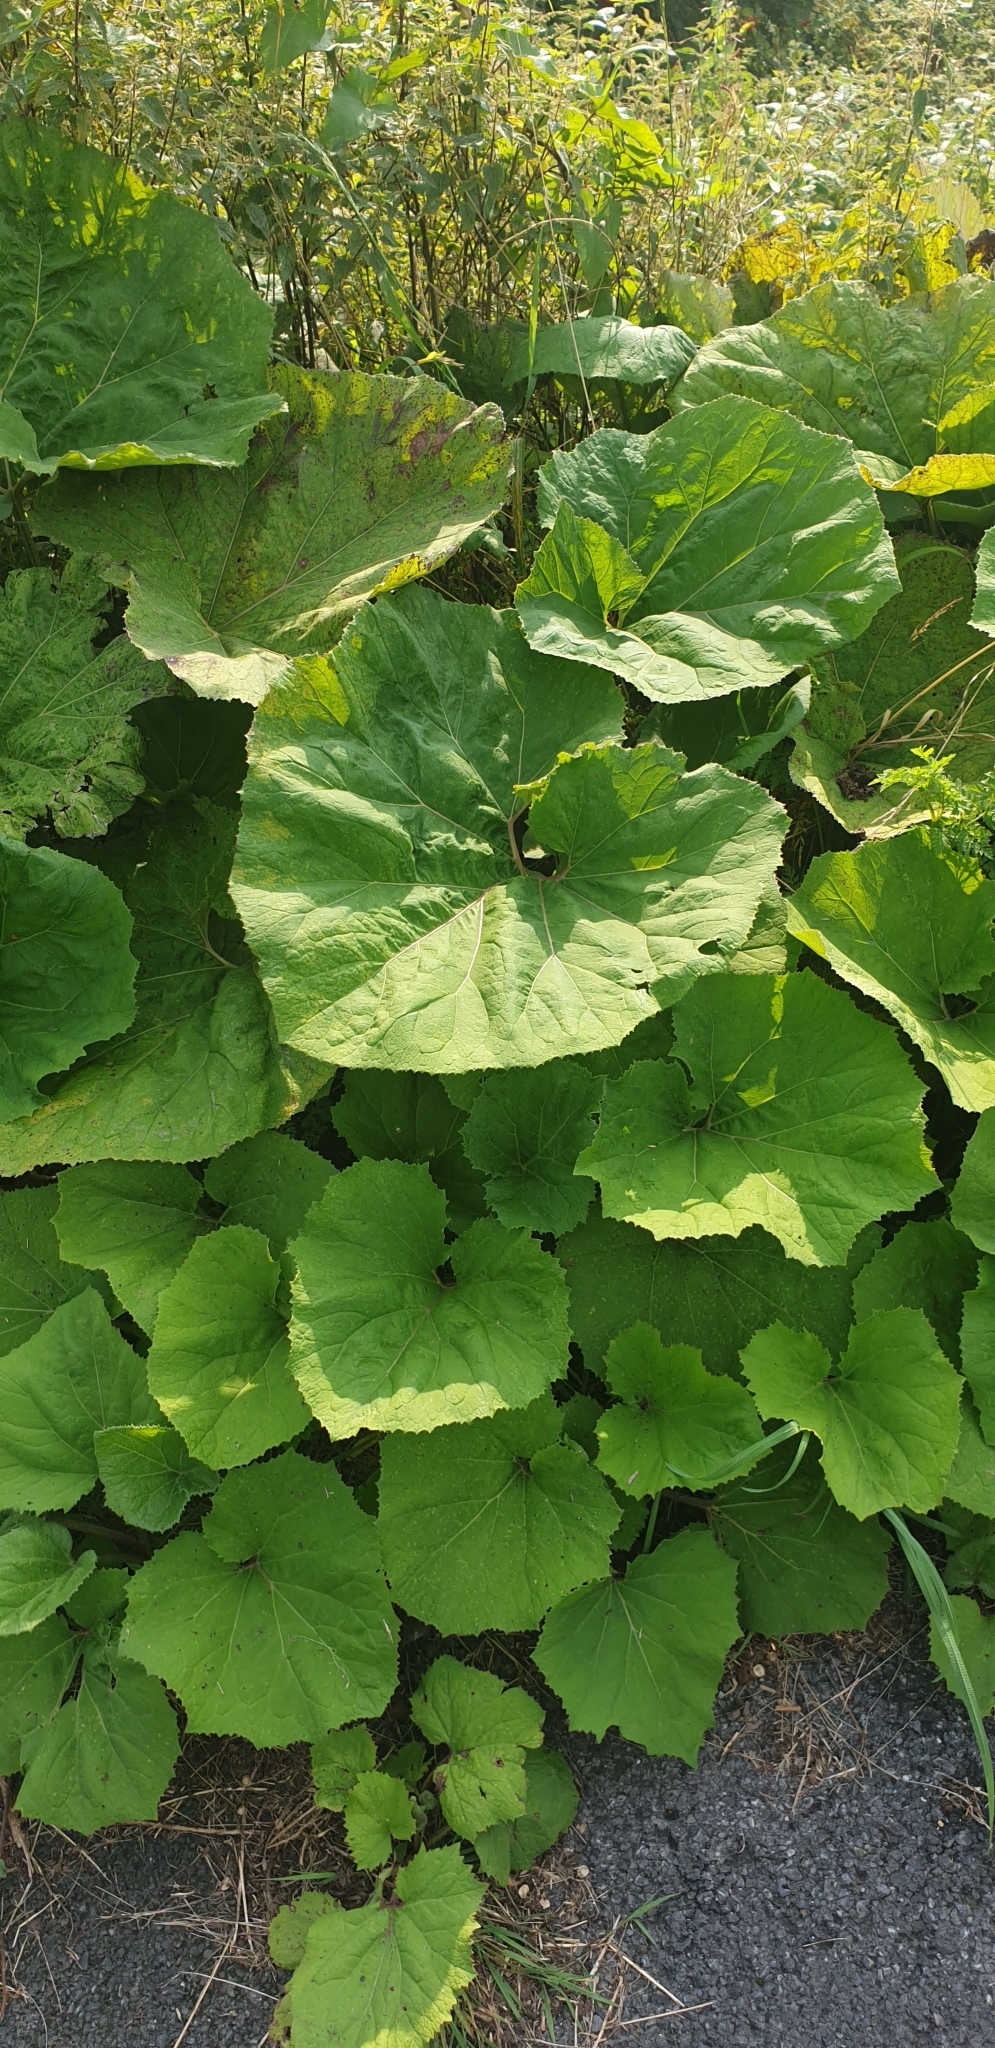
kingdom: Plantae
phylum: Tracheophyta
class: Magnoliopsida
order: Asterales
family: Asteraceae
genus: Petasites
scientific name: Petasites hybridus
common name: Butterbur
